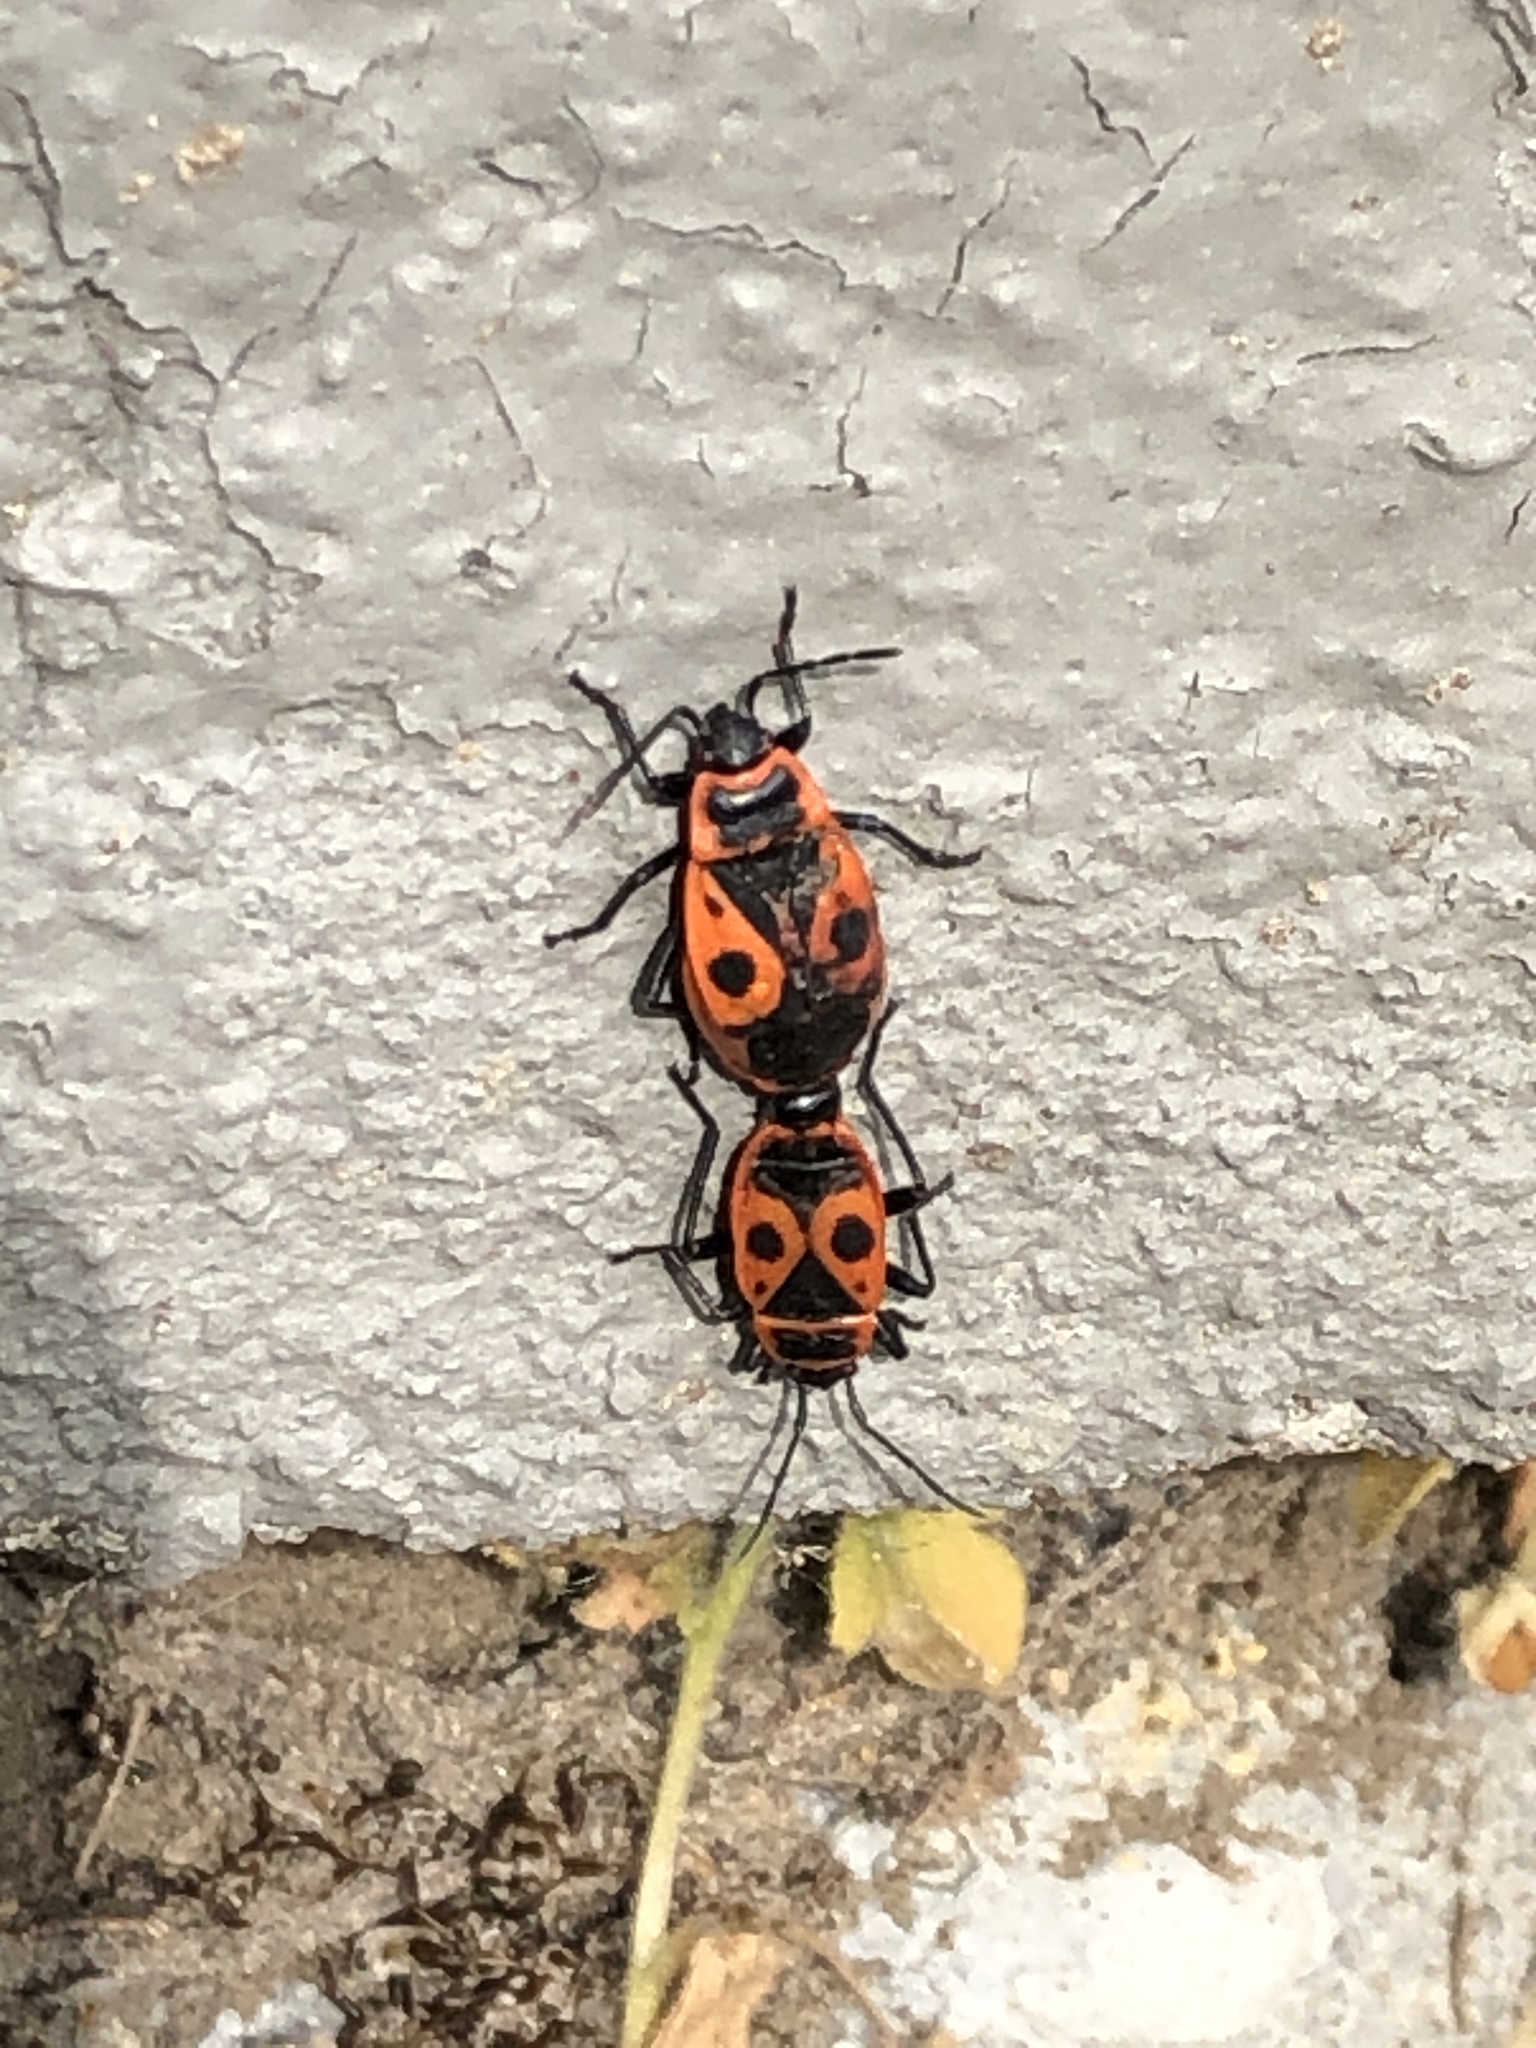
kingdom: Animalia
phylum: Arthropoda
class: Insecta
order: Hemiptera
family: Pyrrhocoridae
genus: Pyrrhocoris
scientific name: Pyrrhocoris apterus
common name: Firebug
